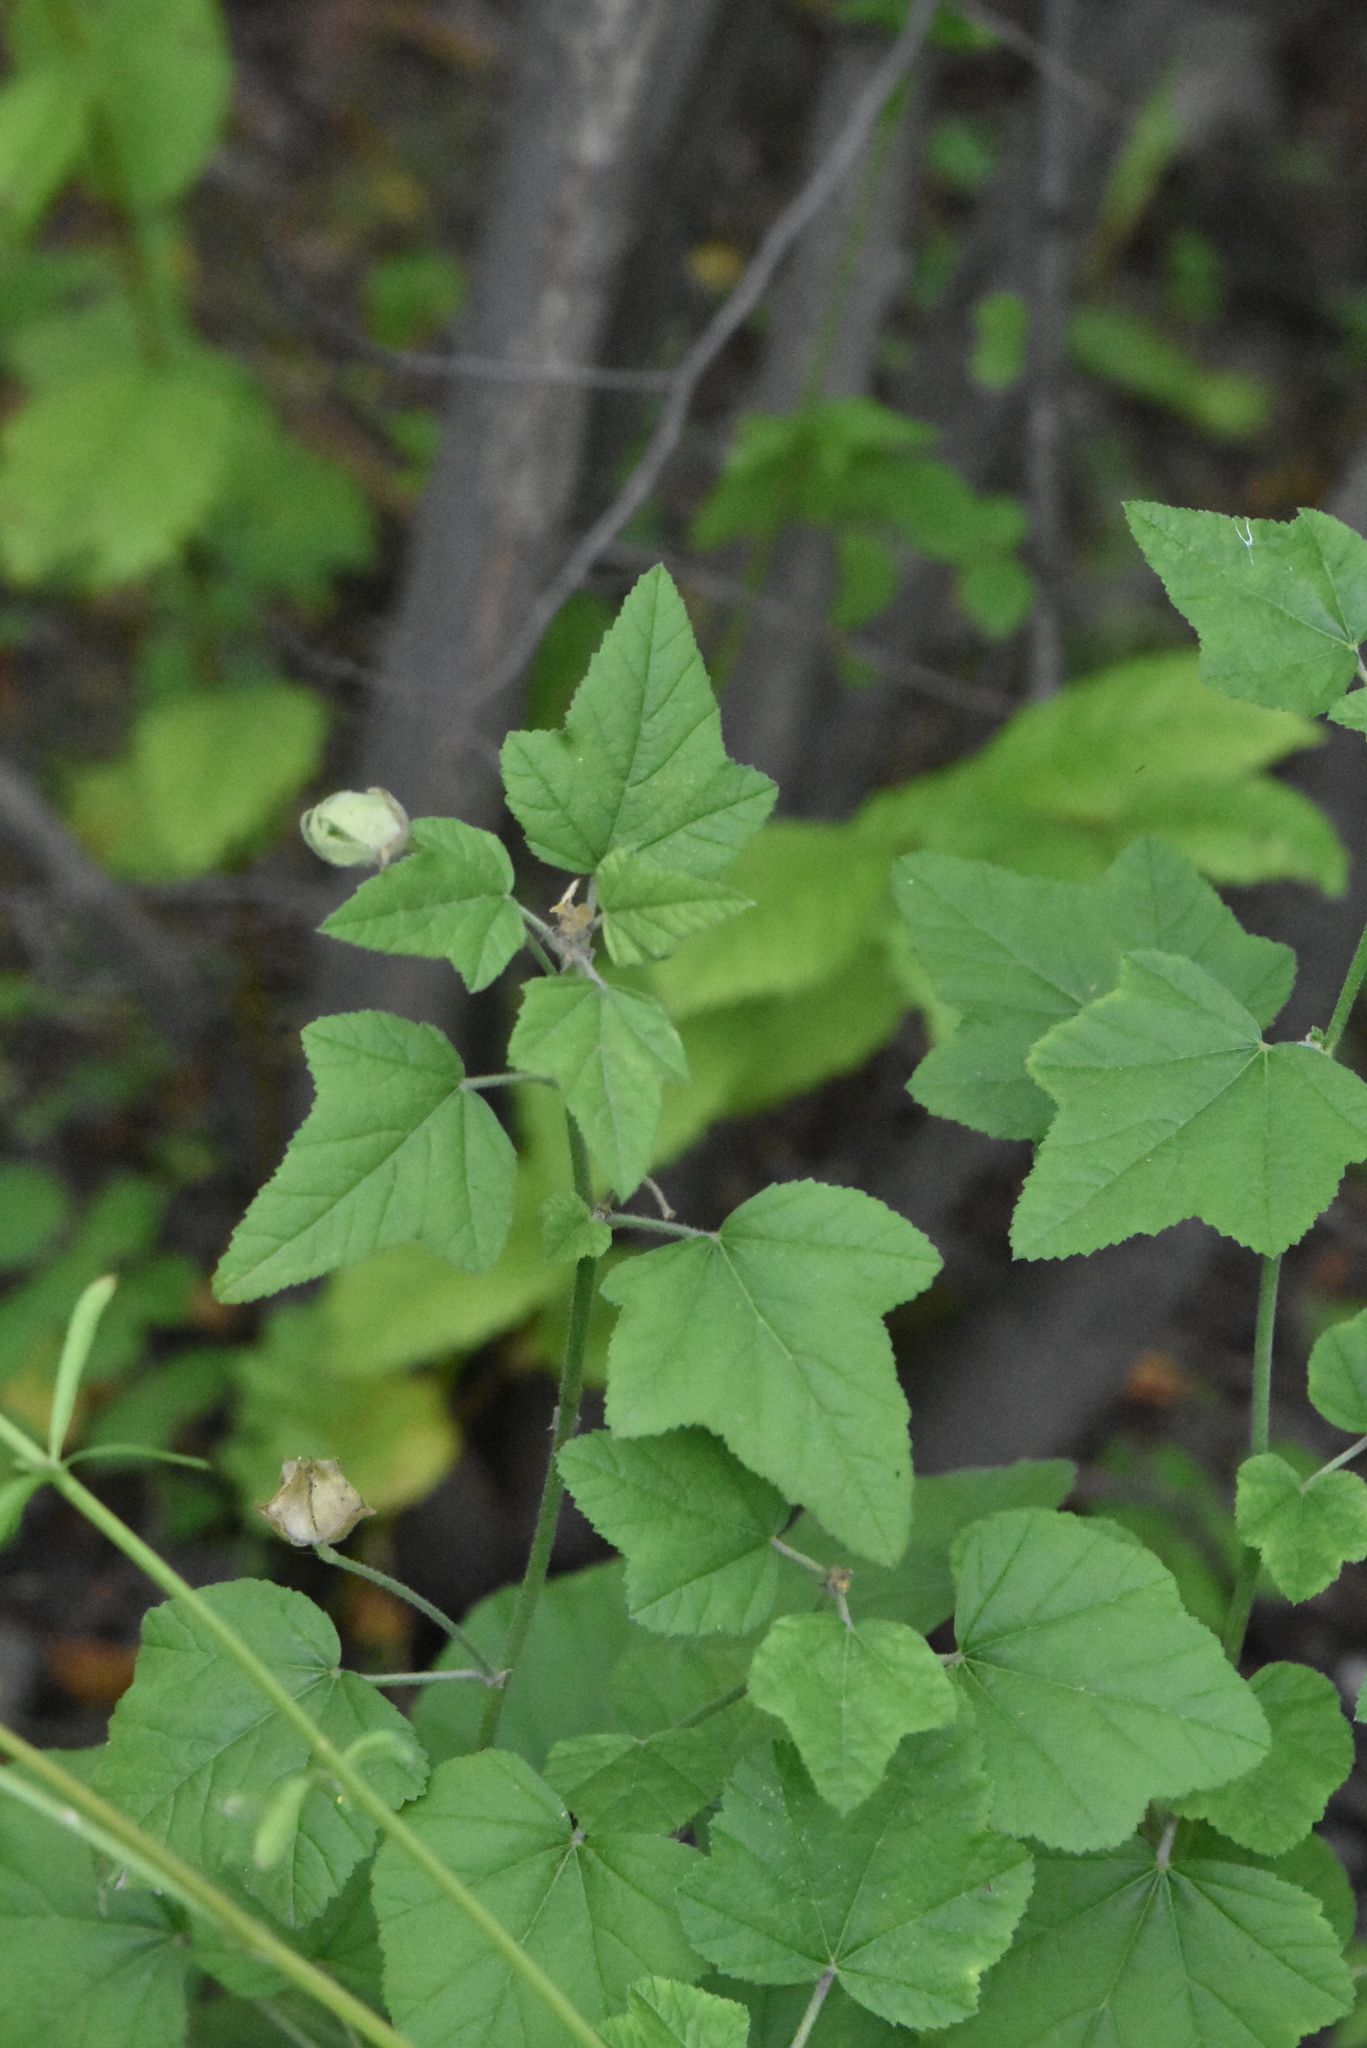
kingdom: Plantae
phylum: Tracheophyta
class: Magnoliopsida
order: Malvales
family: Malvaceae
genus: Malva
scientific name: Malva thuringiaca
